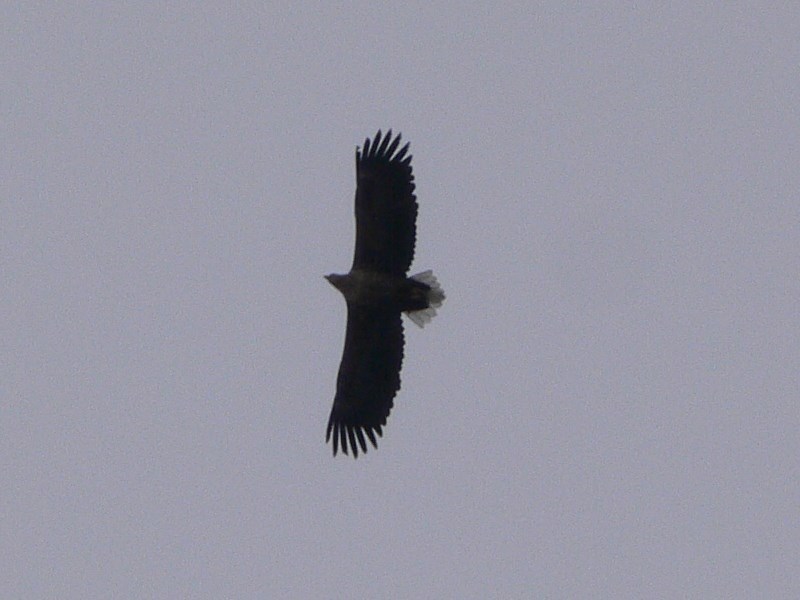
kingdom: Animalia
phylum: Chordata
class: Aves
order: Accipitriformes
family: Accipitridae
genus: Haliaeetus
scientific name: Haliaeetus albicilla
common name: White-tailed eagle
